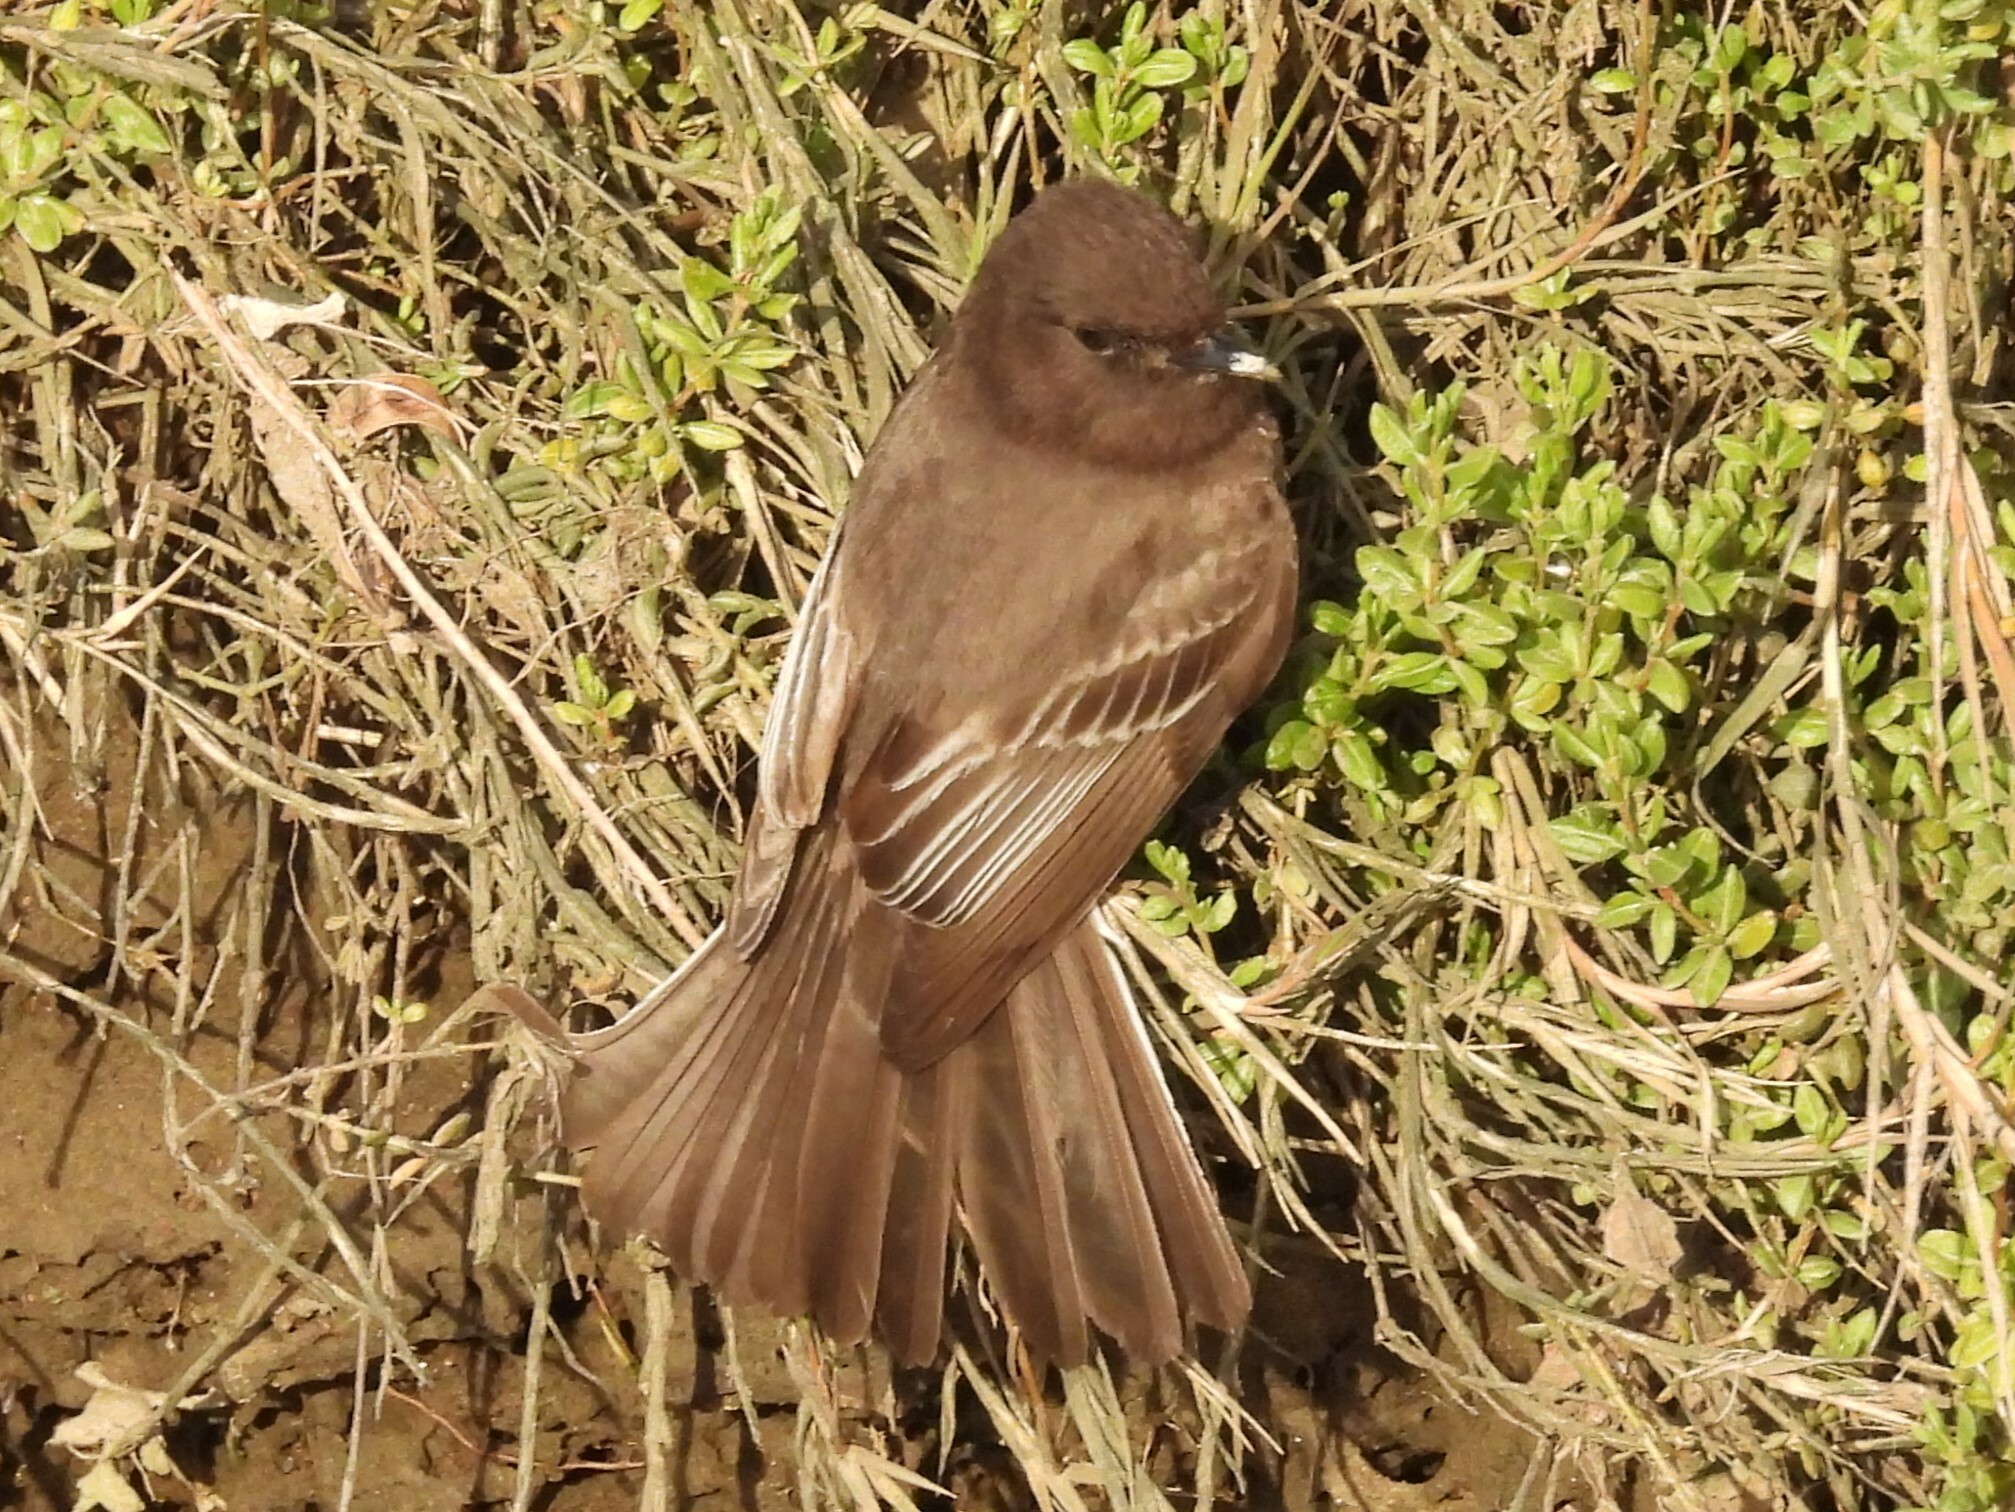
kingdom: Animalia
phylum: Chordata
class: Aves
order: Passeriformes
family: Tyrannidae
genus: Sayornis
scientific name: Sayornis nigricans
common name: Black phoebe
